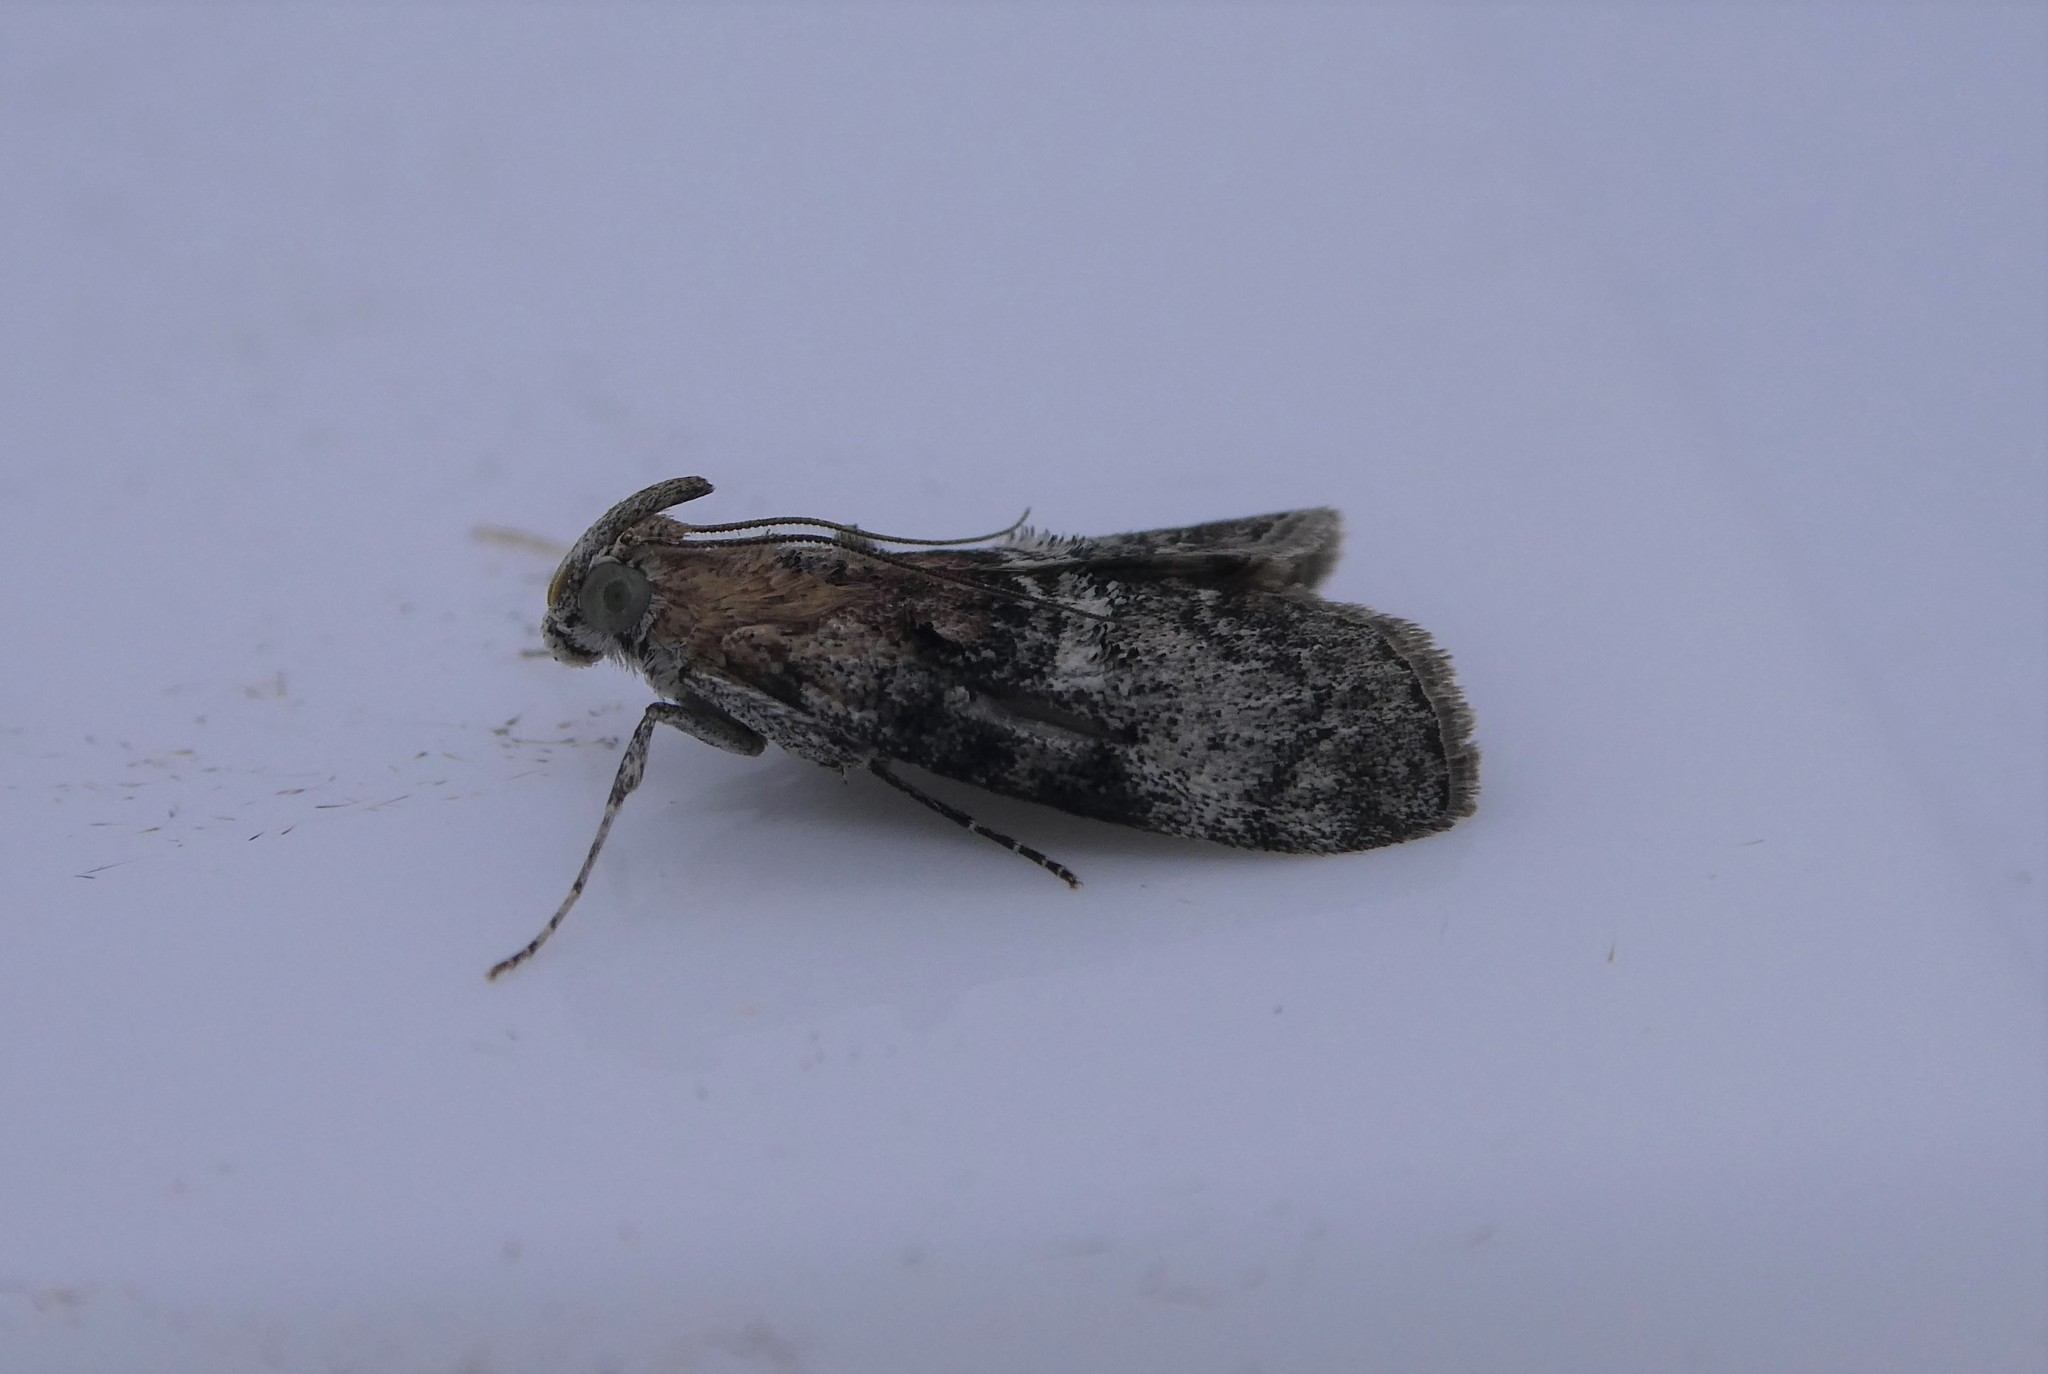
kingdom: Animalia
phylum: Arthropoda
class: Insecta
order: Lepidoptera
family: Pyralidae
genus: Pococera
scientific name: Pococera expandens
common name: Striped oak webworm moth
